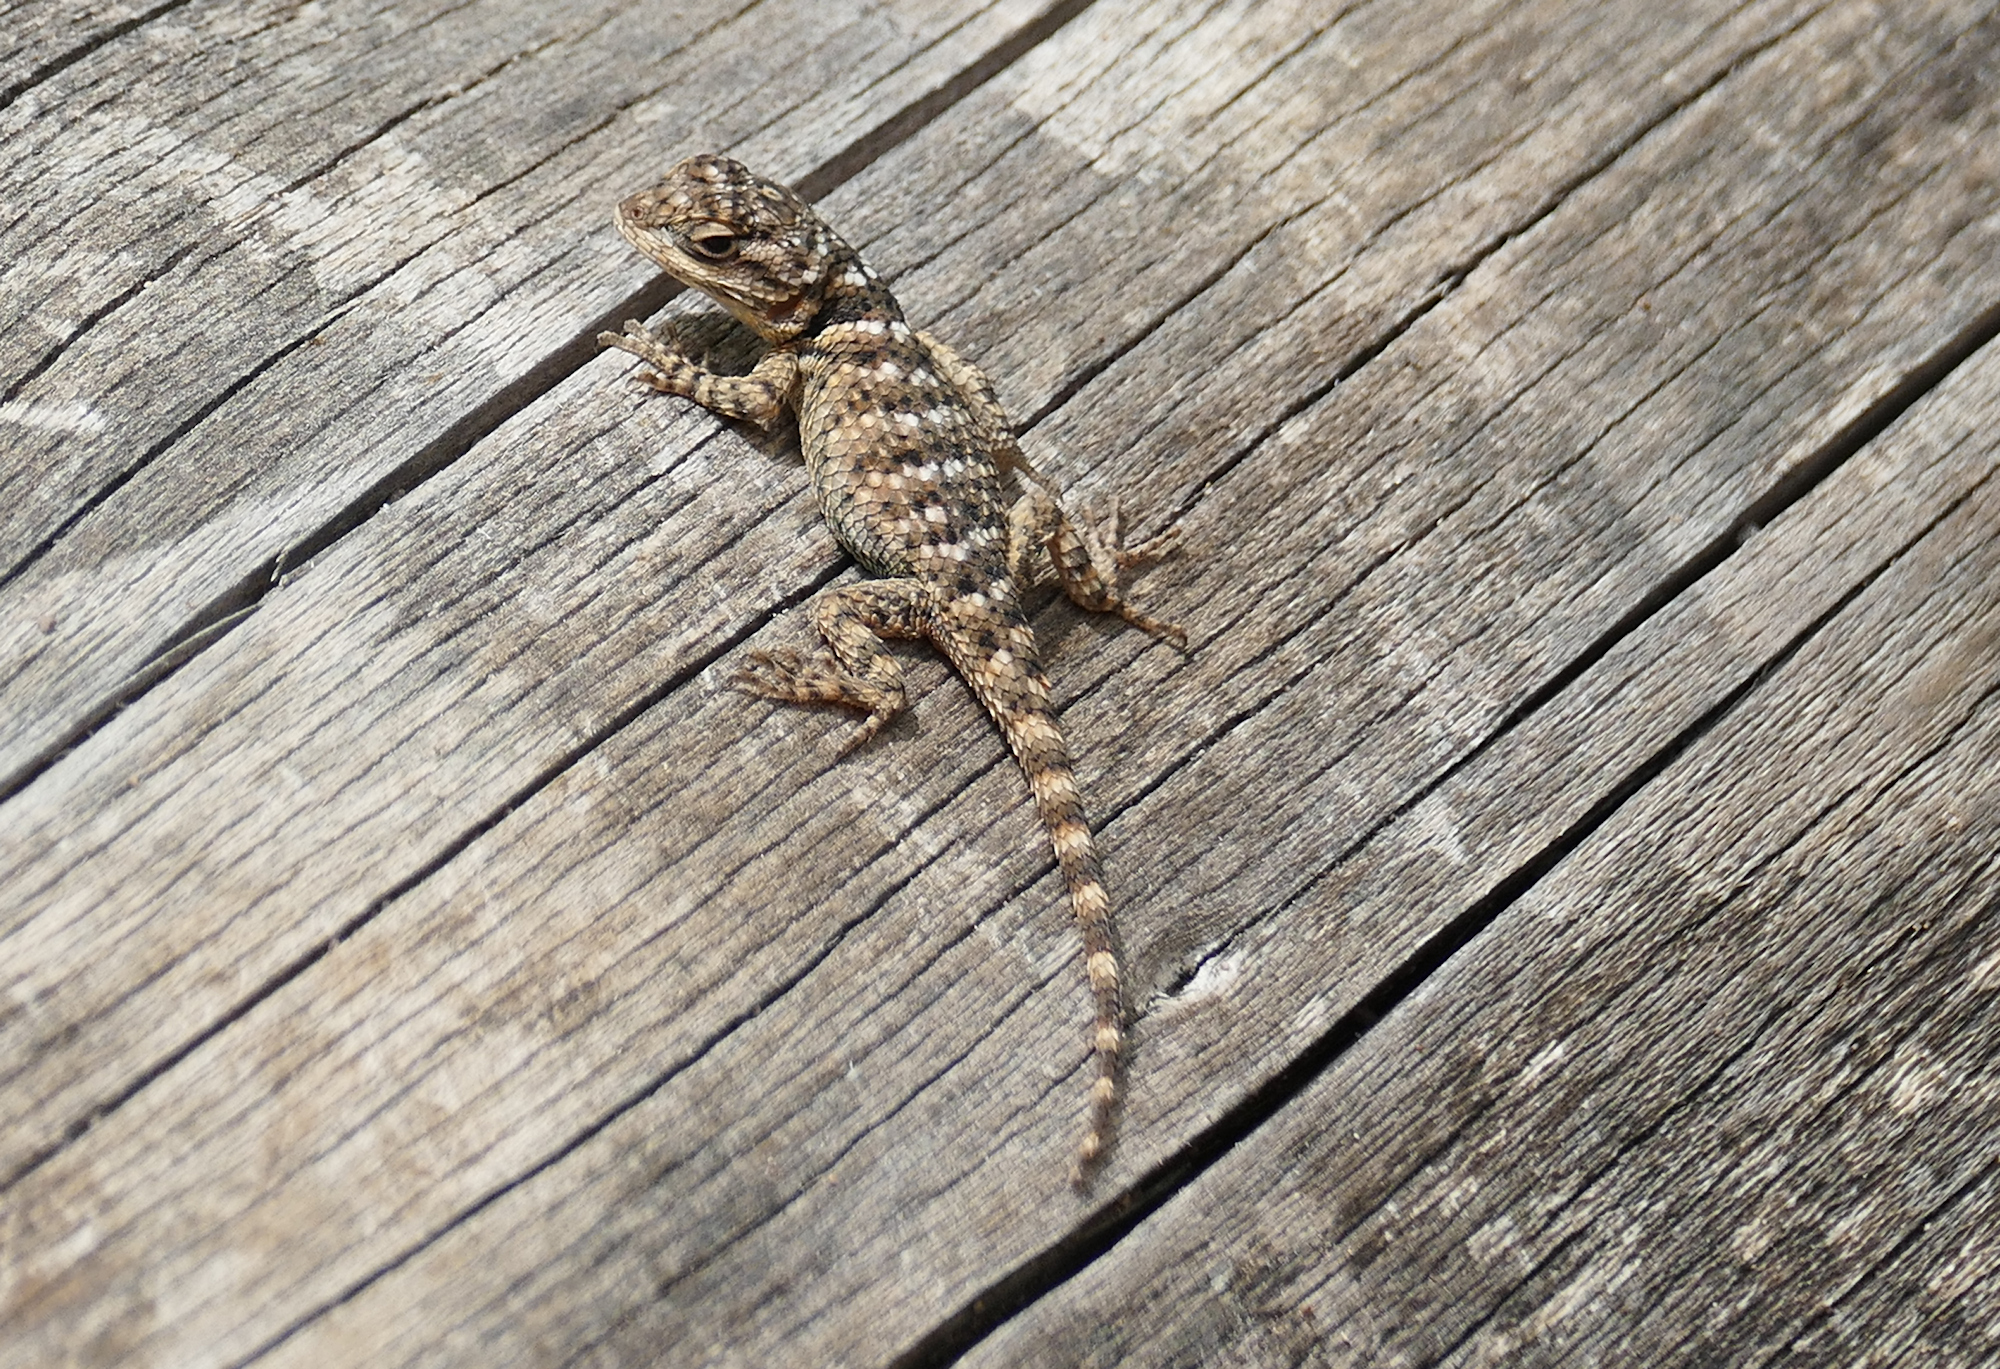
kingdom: Animalia
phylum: Chordata
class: Squamata
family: Phrynosomatidae
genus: Sceloporus
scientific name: Sceloporus poinsettii
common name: Crevice spiny lizard
